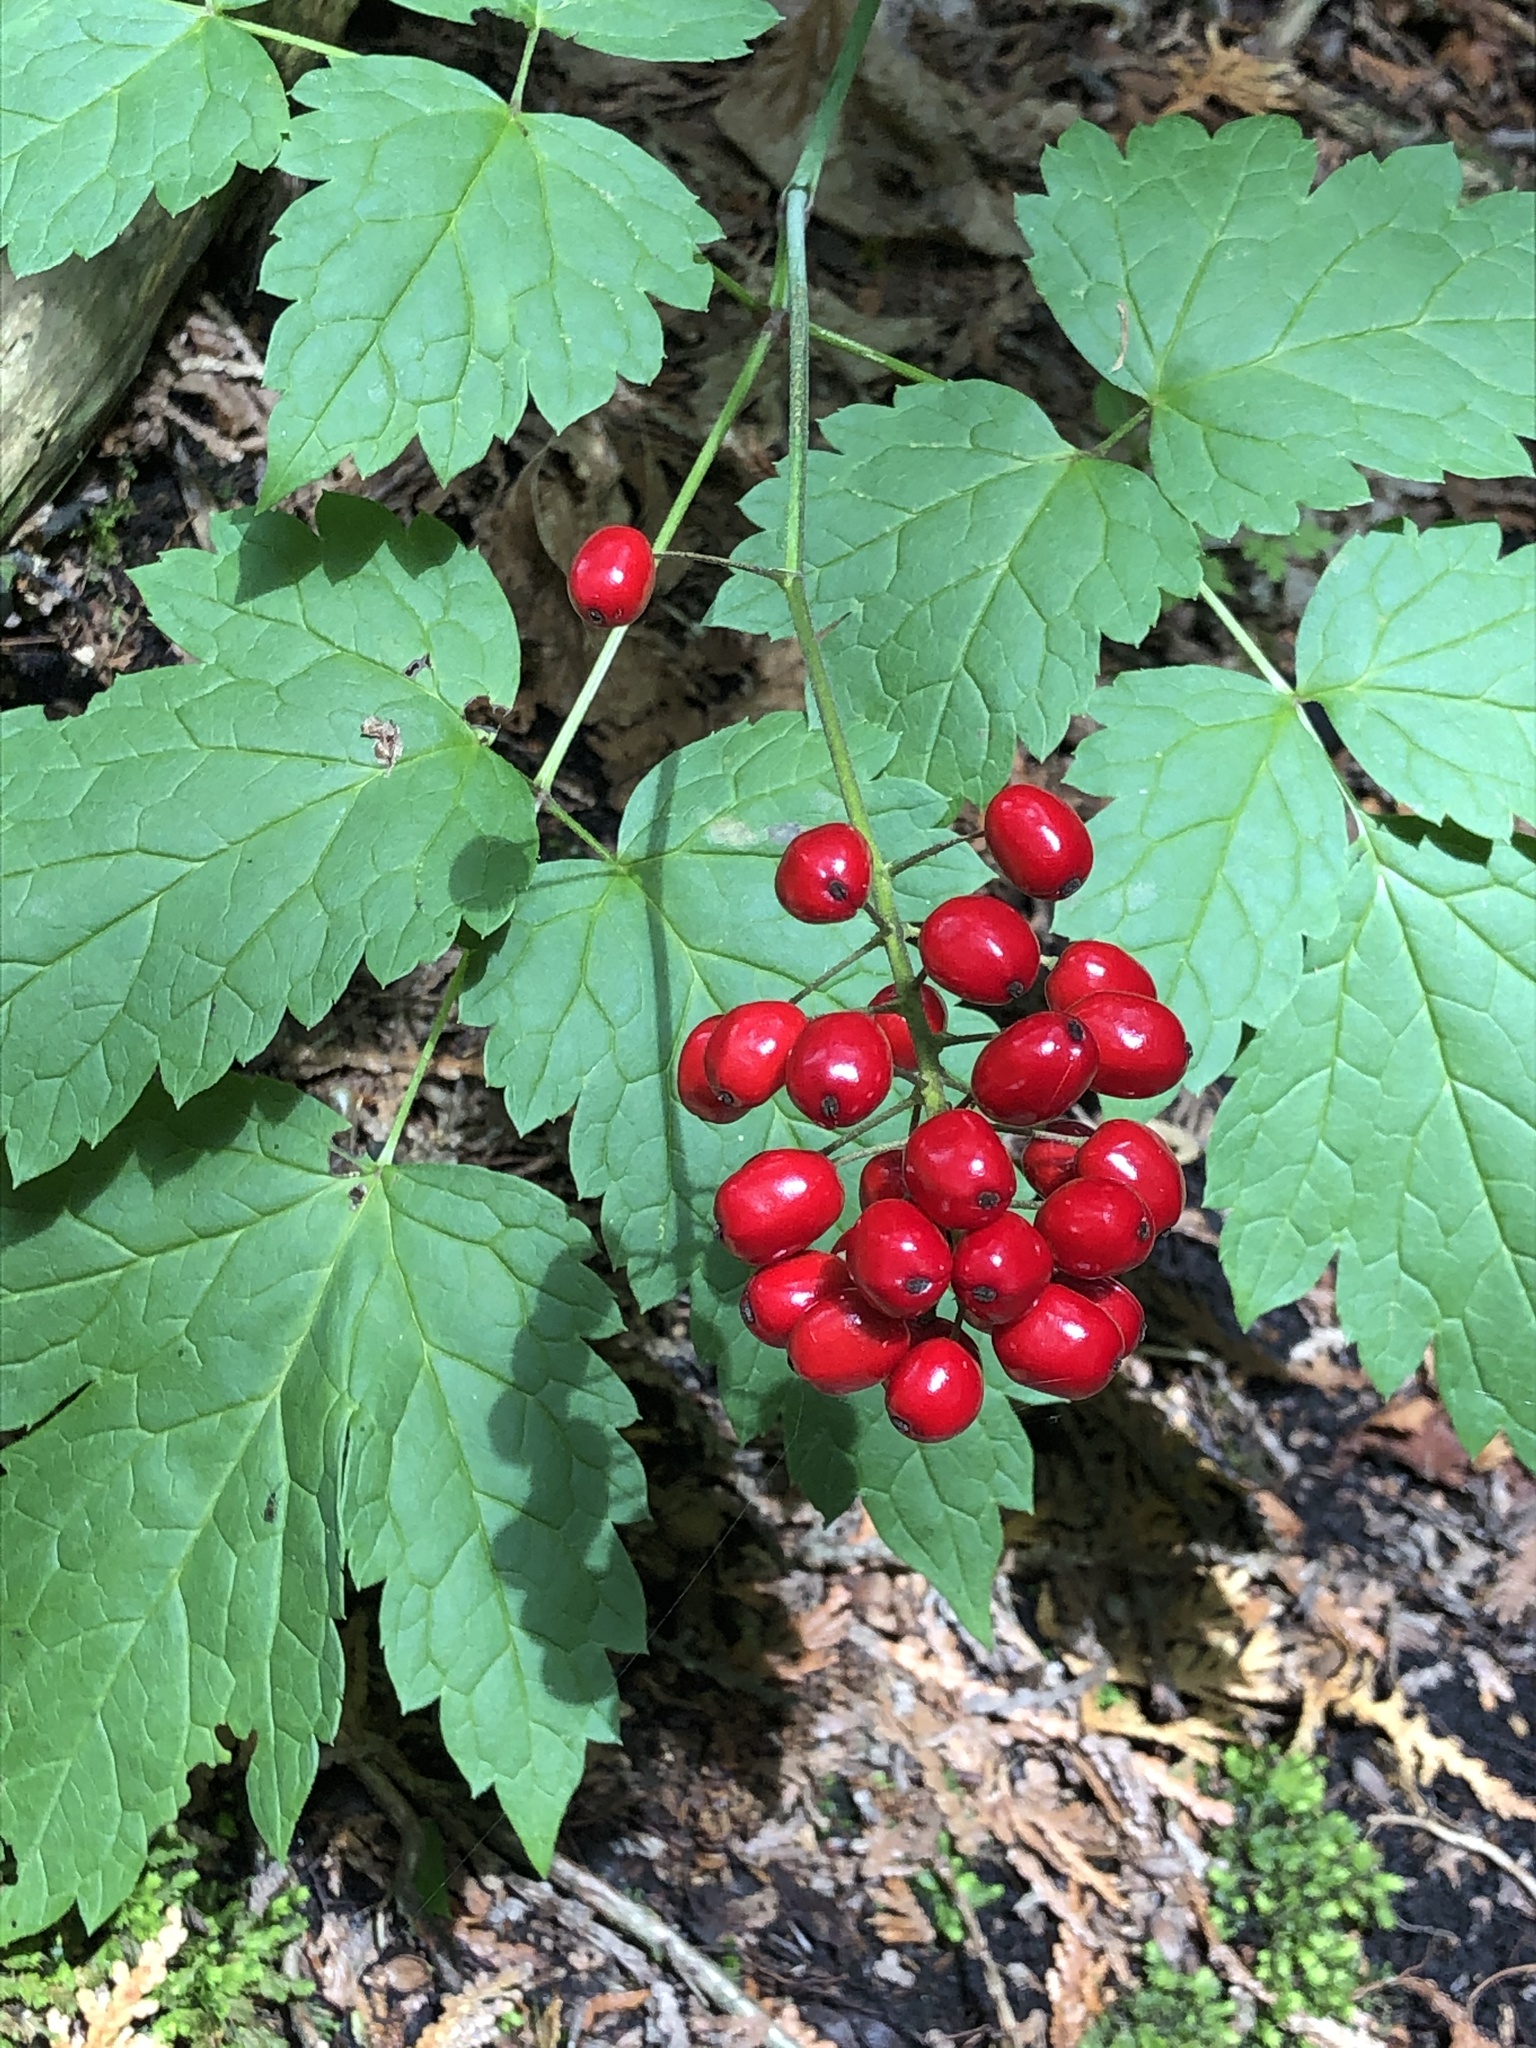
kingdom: Plantae
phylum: Tracheophyta
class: Magnoliopsida
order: Ranunculales
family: Ranunculaceae
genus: Actaea
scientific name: Actaea rubra
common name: Red baneberry
